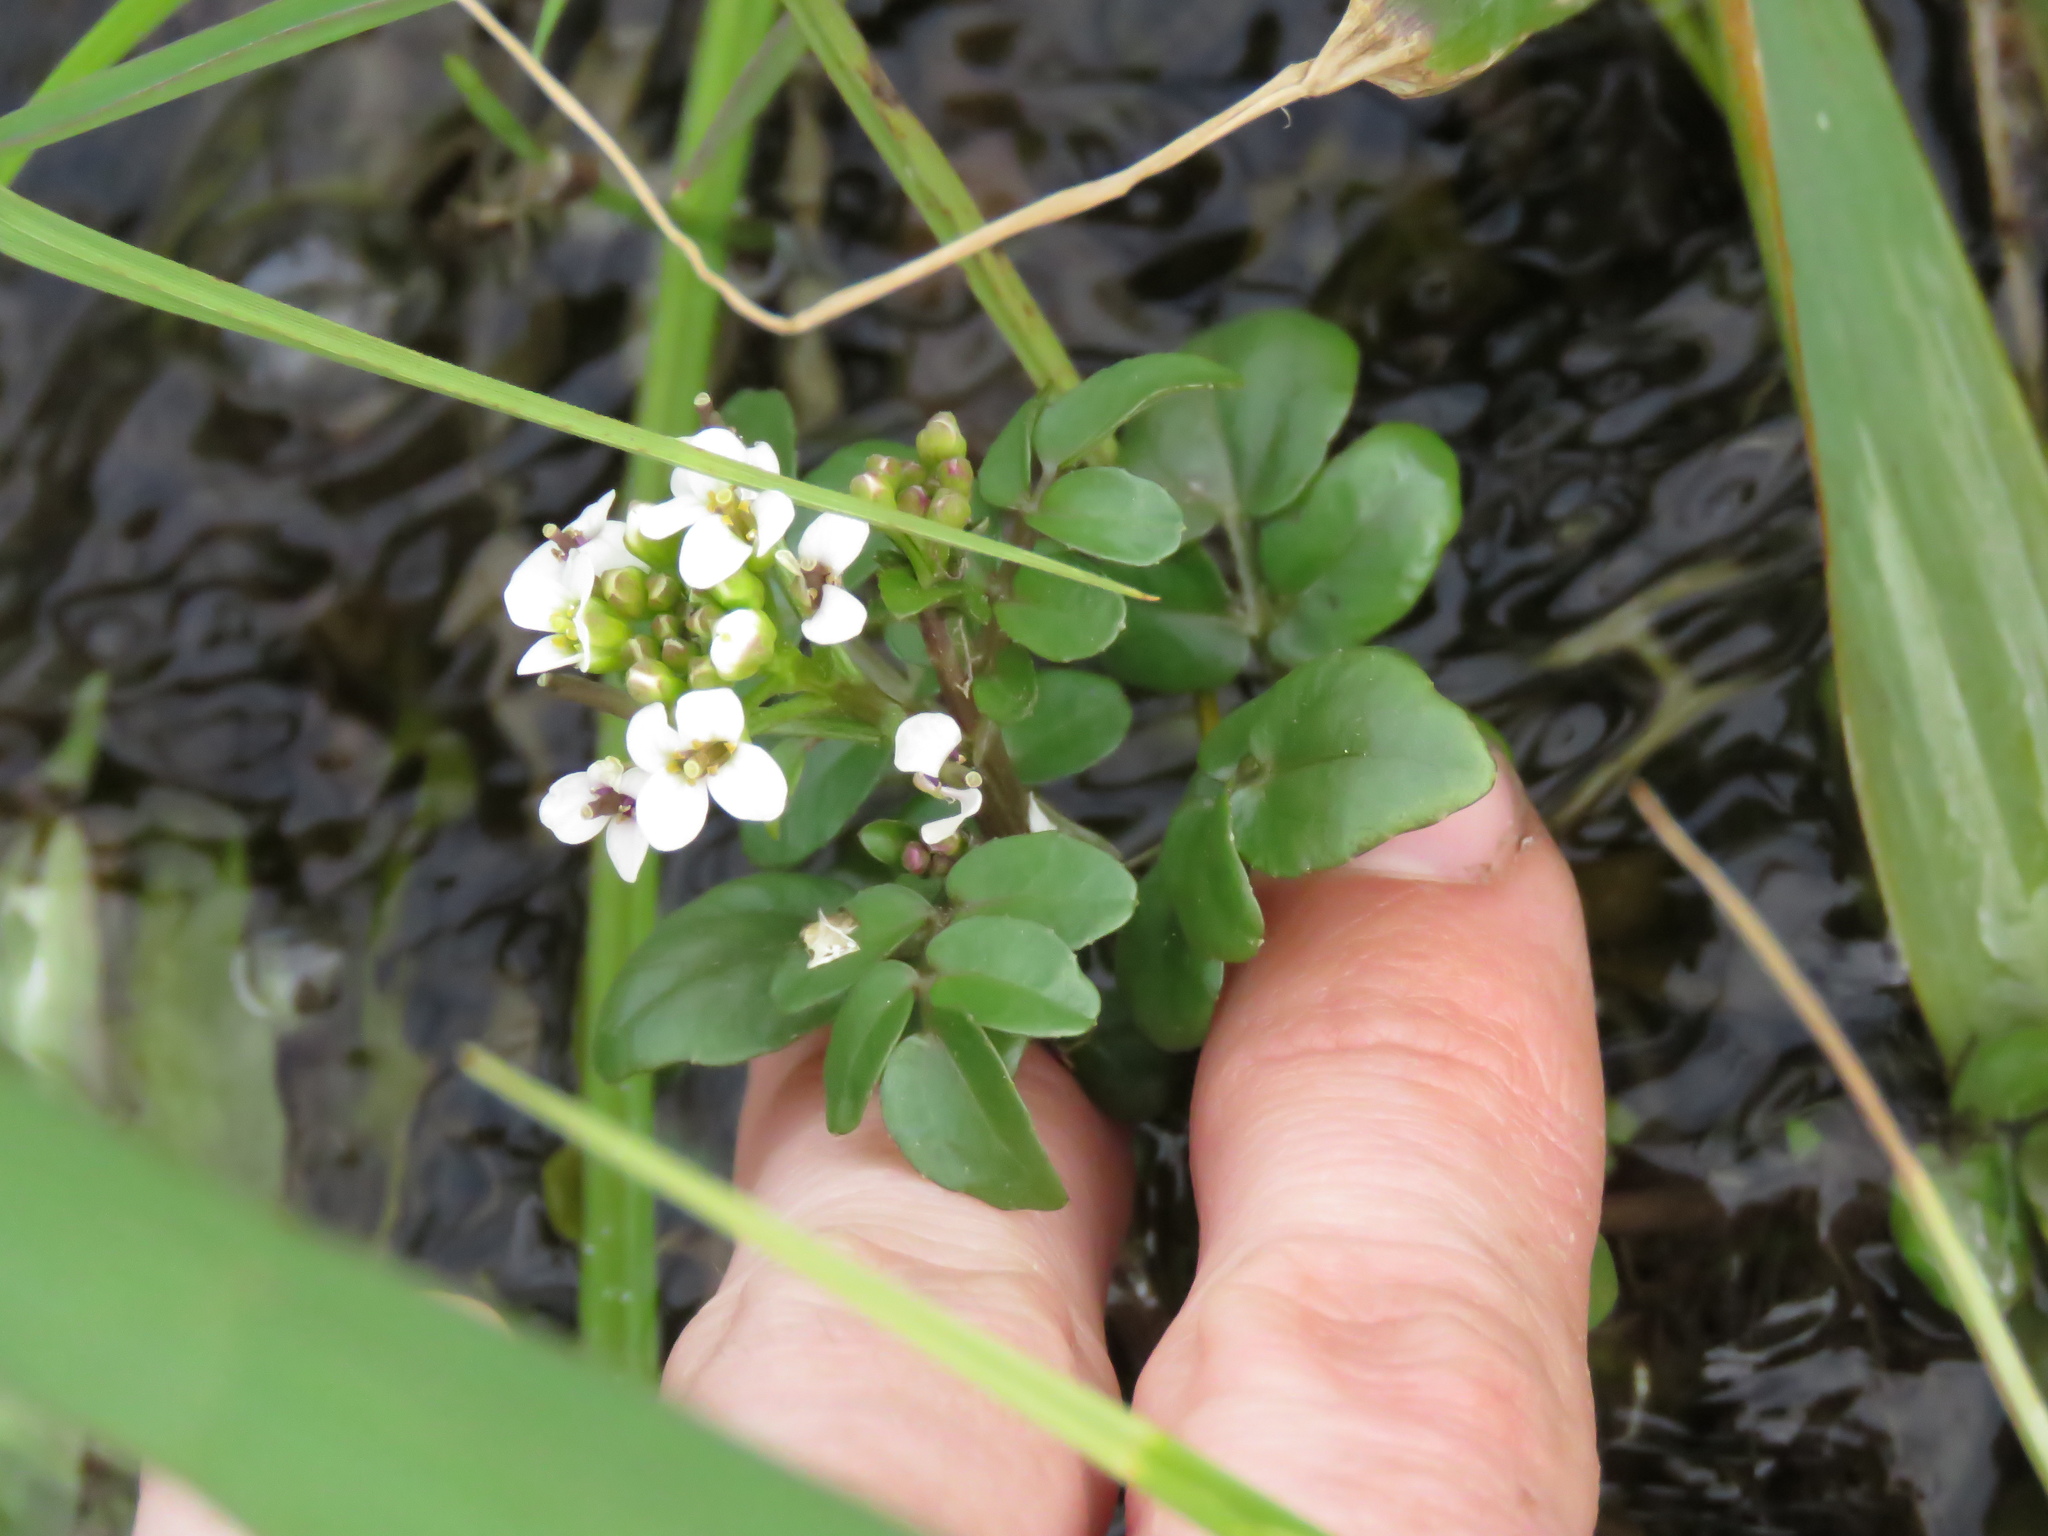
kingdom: Plantae
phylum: Tracheophyta
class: Magnoliopsida
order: Brassicales
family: Brassicaceae
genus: Nasturtium
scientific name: Nasturtium officinale
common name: Watercress
